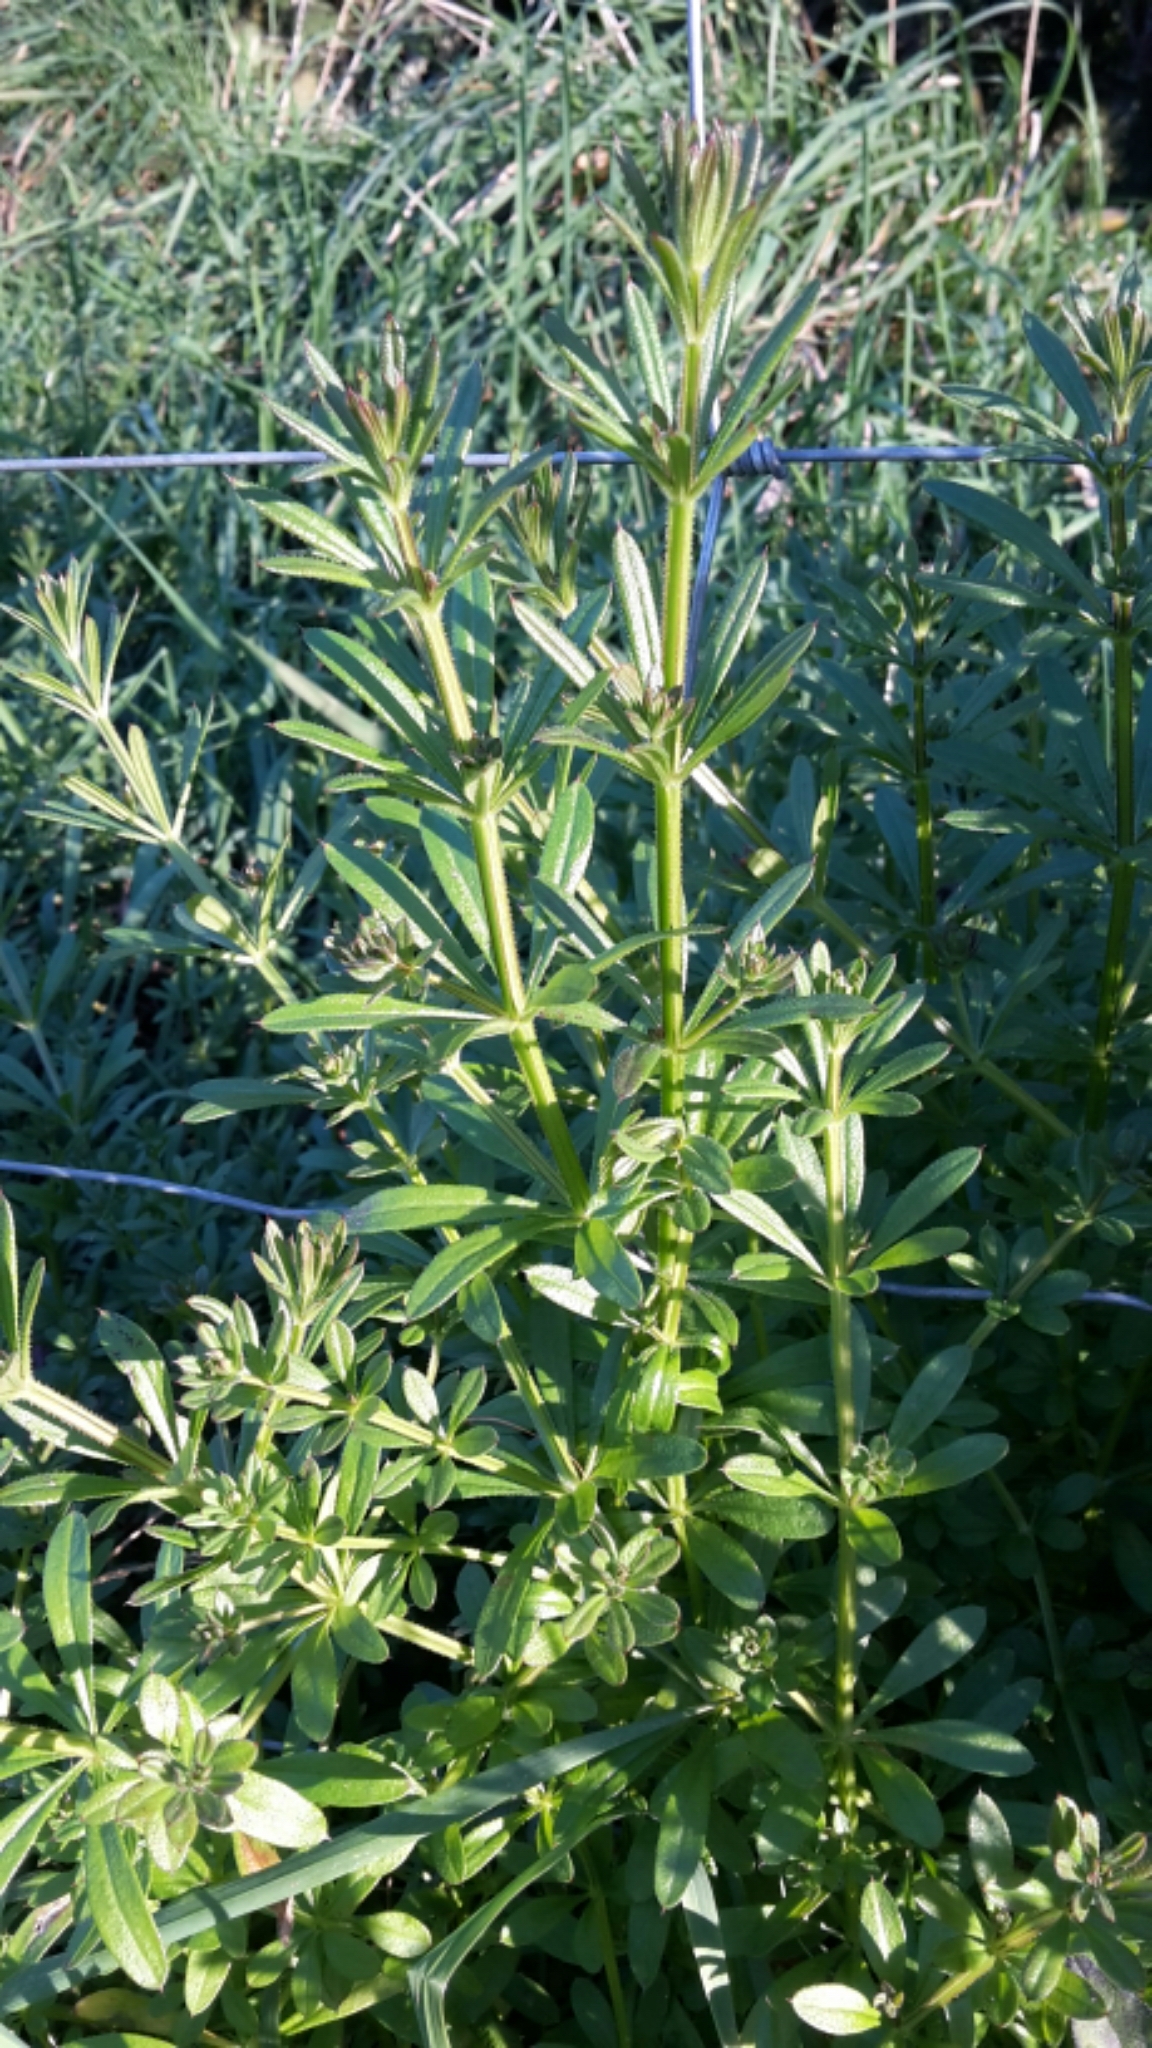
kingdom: Plantae
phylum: Tracheophyta
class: Magnoliopsida
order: Gentianales
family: Rubiaceae
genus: Galium
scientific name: Galium aparine
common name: Cleavers
